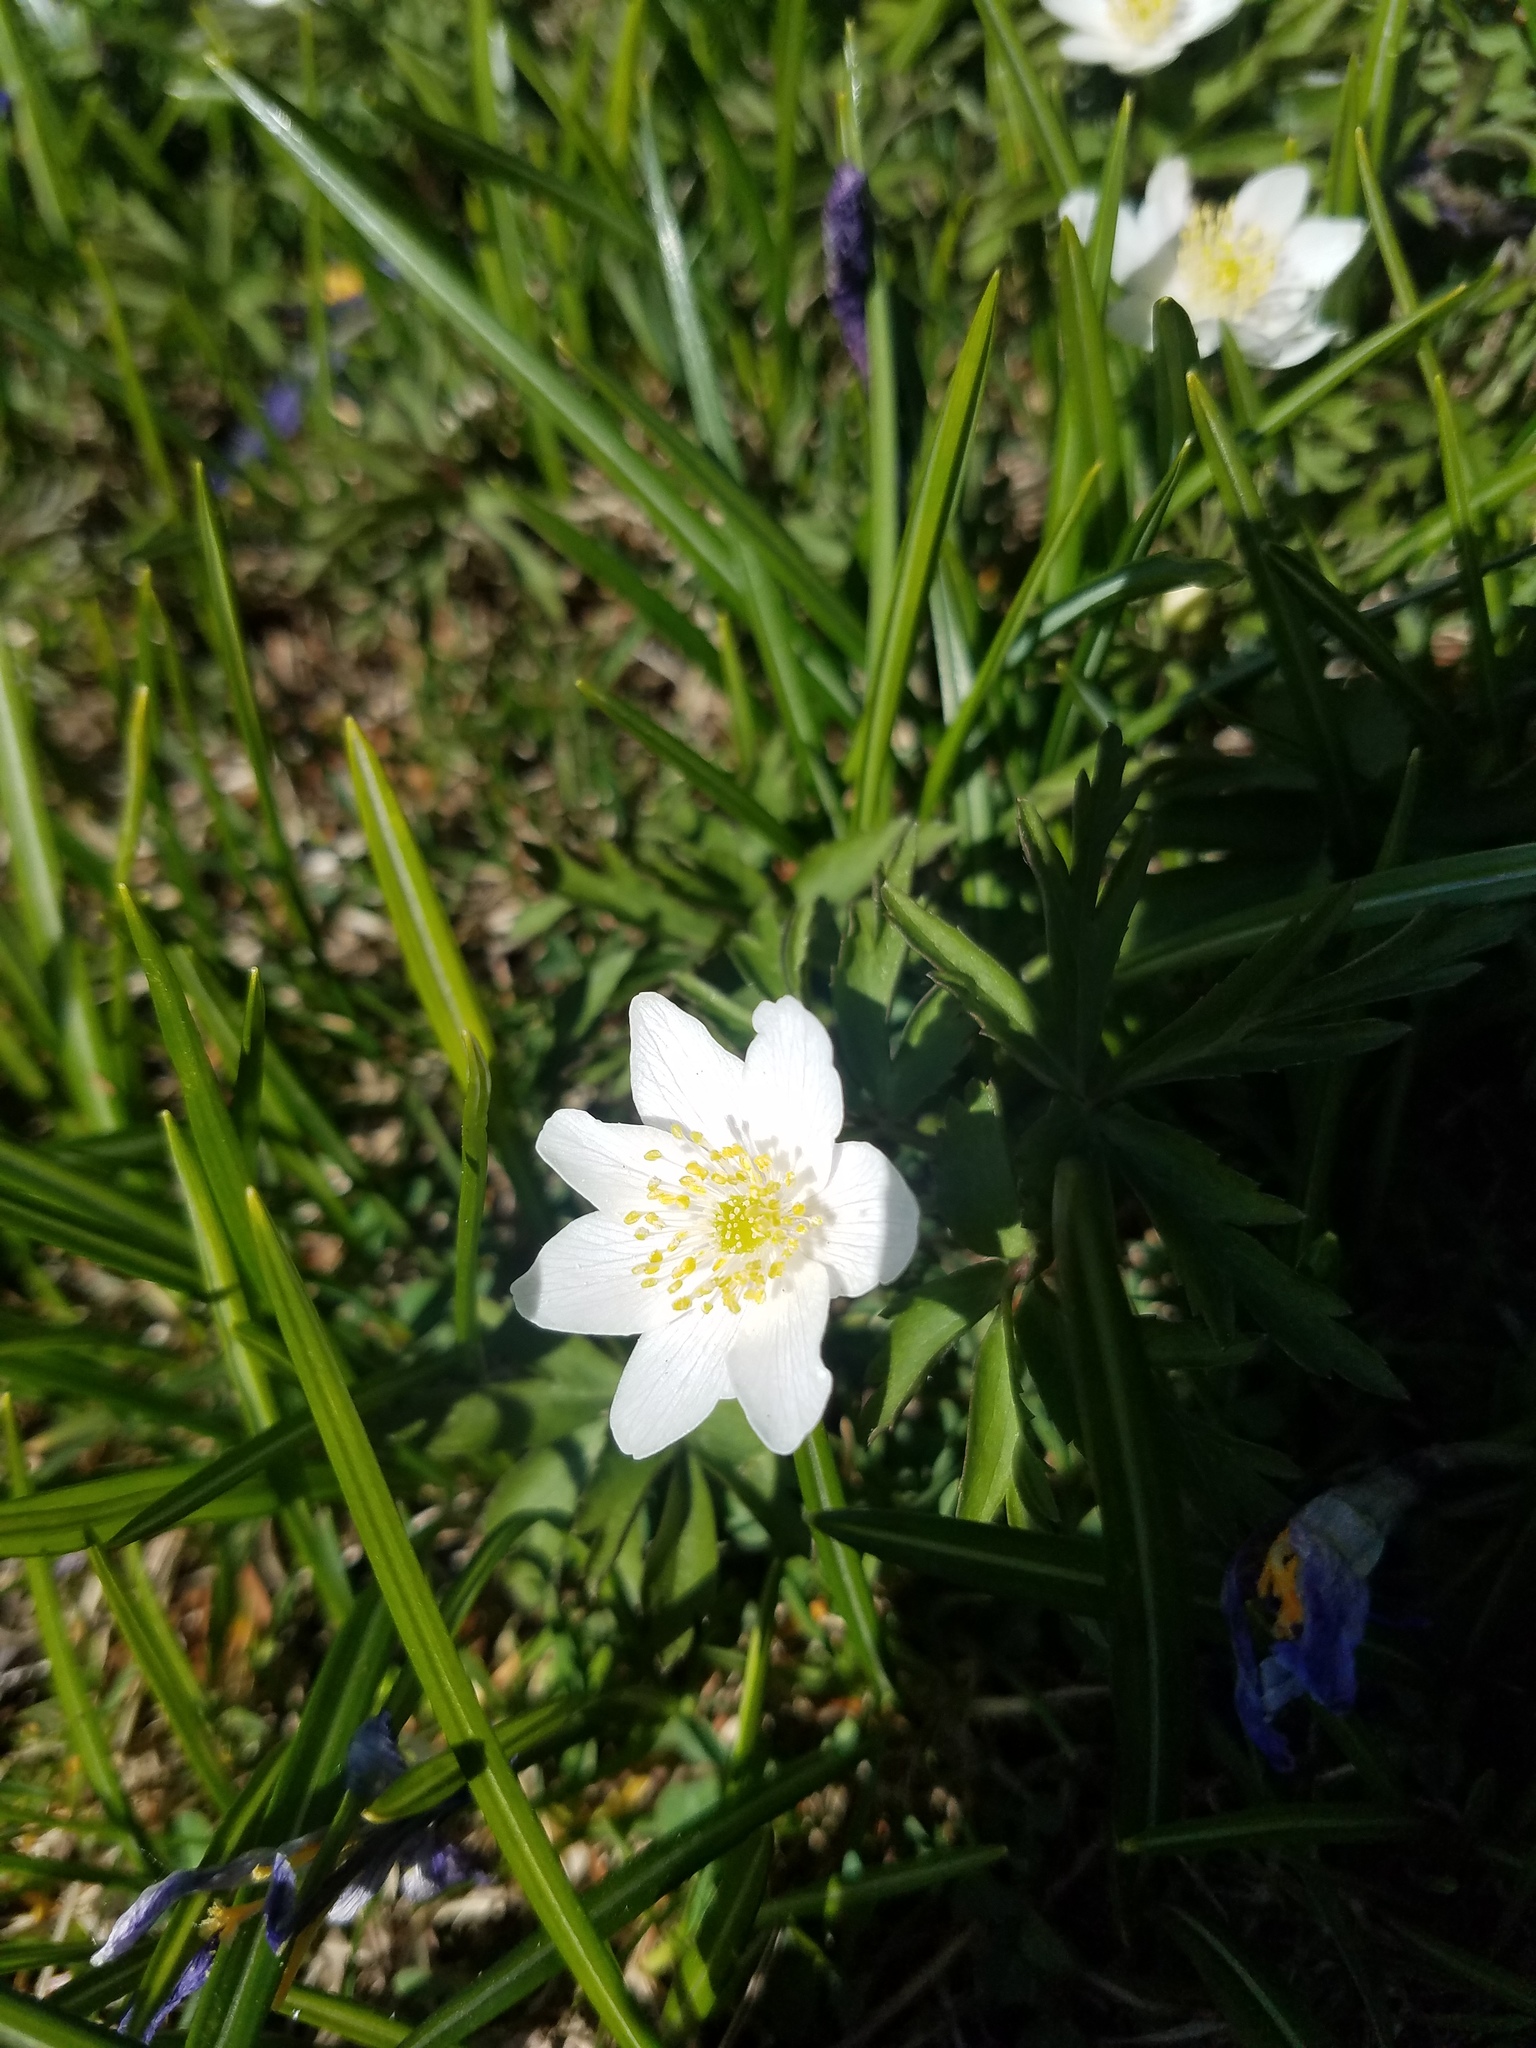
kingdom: Plantae
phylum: Tracheophyta
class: Magnoliopsida
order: Ranunculales
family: Ranunculaceae
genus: Anemone
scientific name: Anemone nemorosa
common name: Wood anemone
